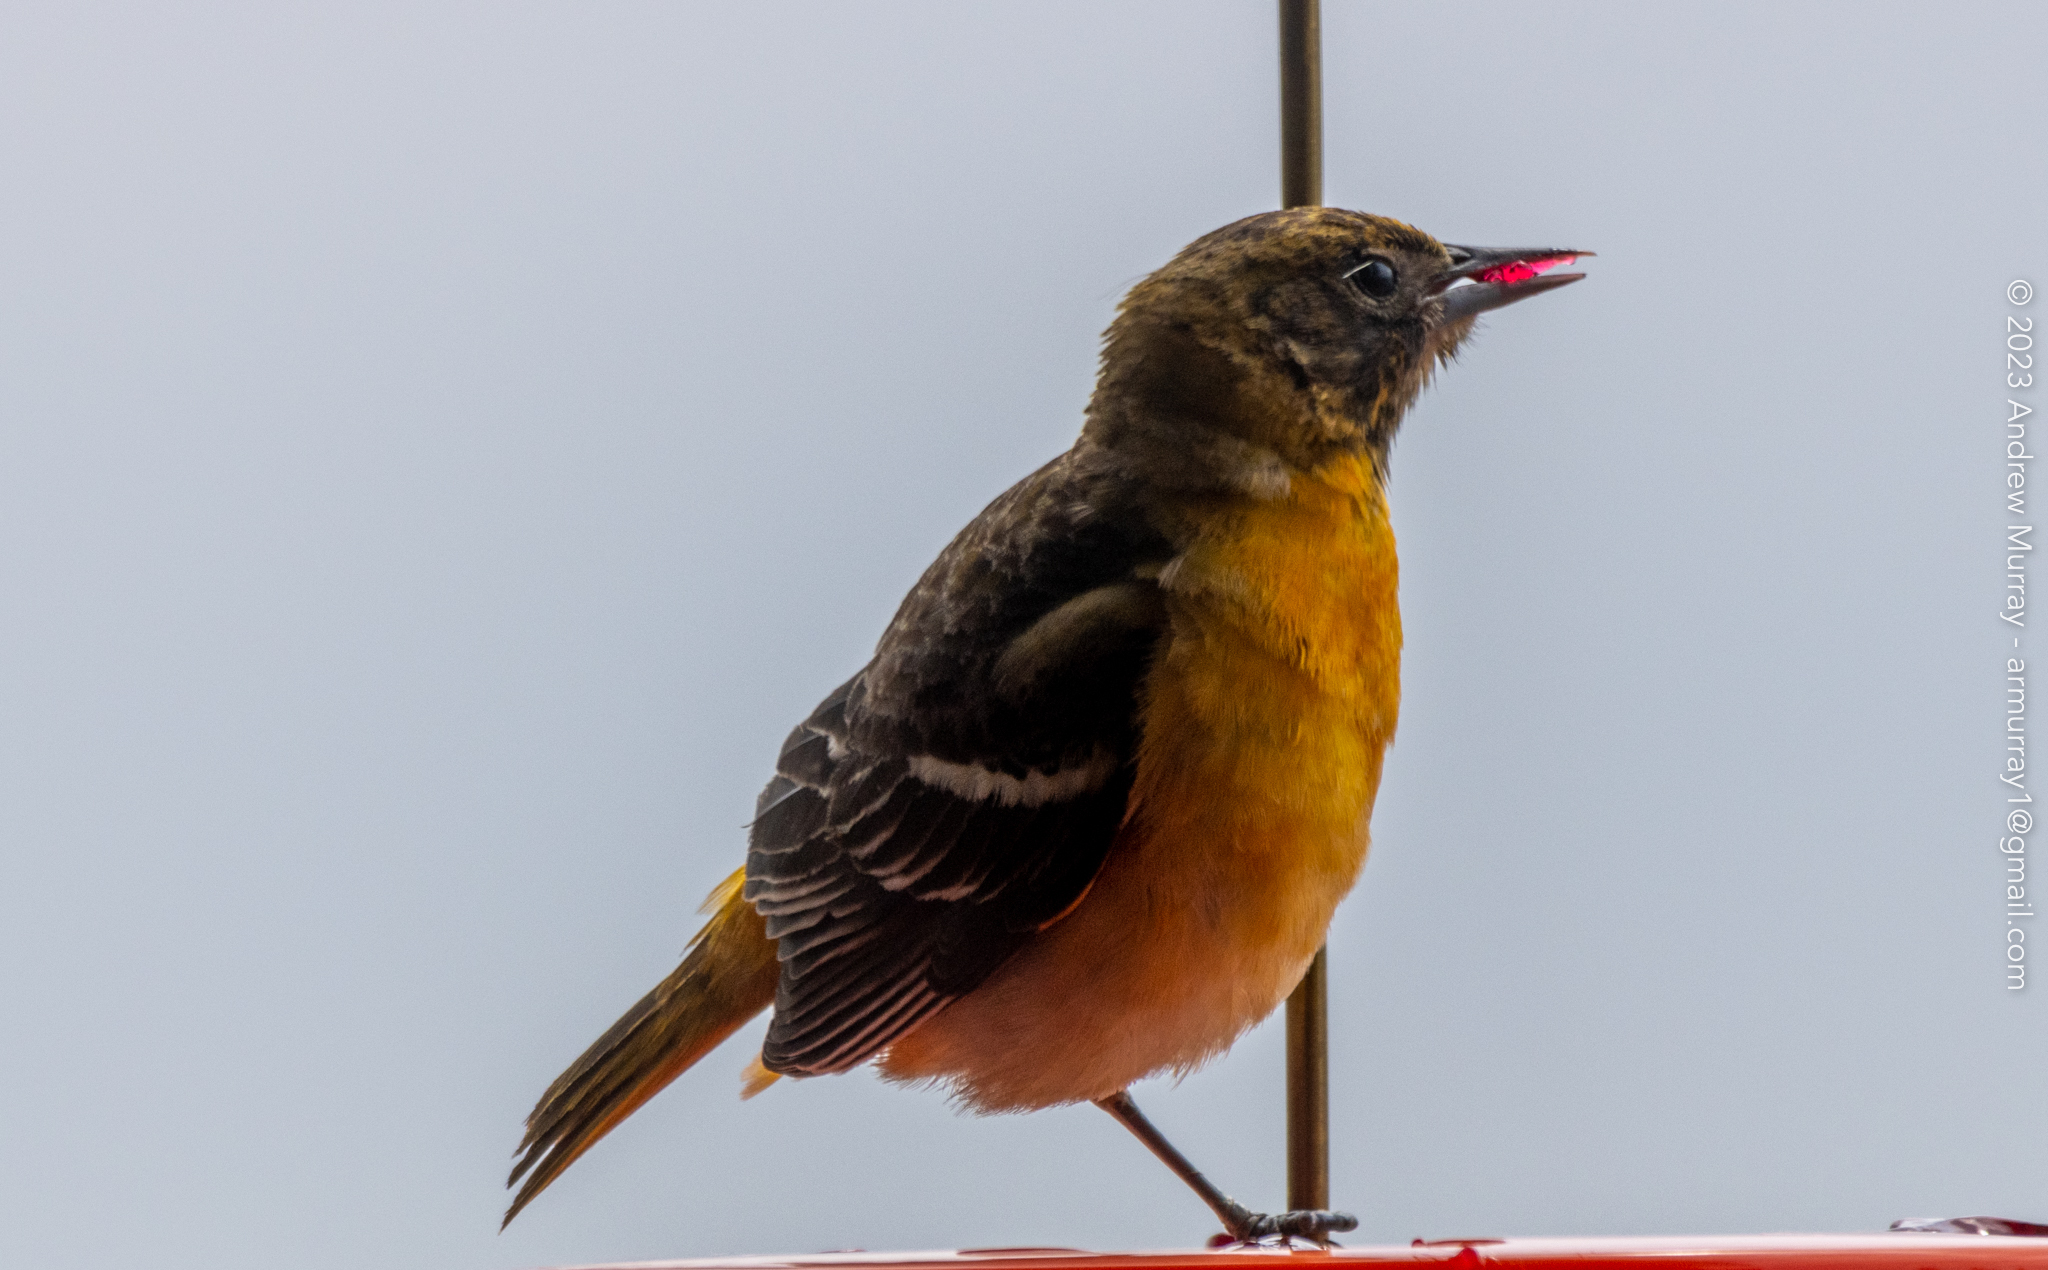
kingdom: Animalia
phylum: Chordata
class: Aves
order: Passeriformes
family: Icteridae
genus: Icterus
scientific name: Icterus galbula
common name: Baltimore oriole
